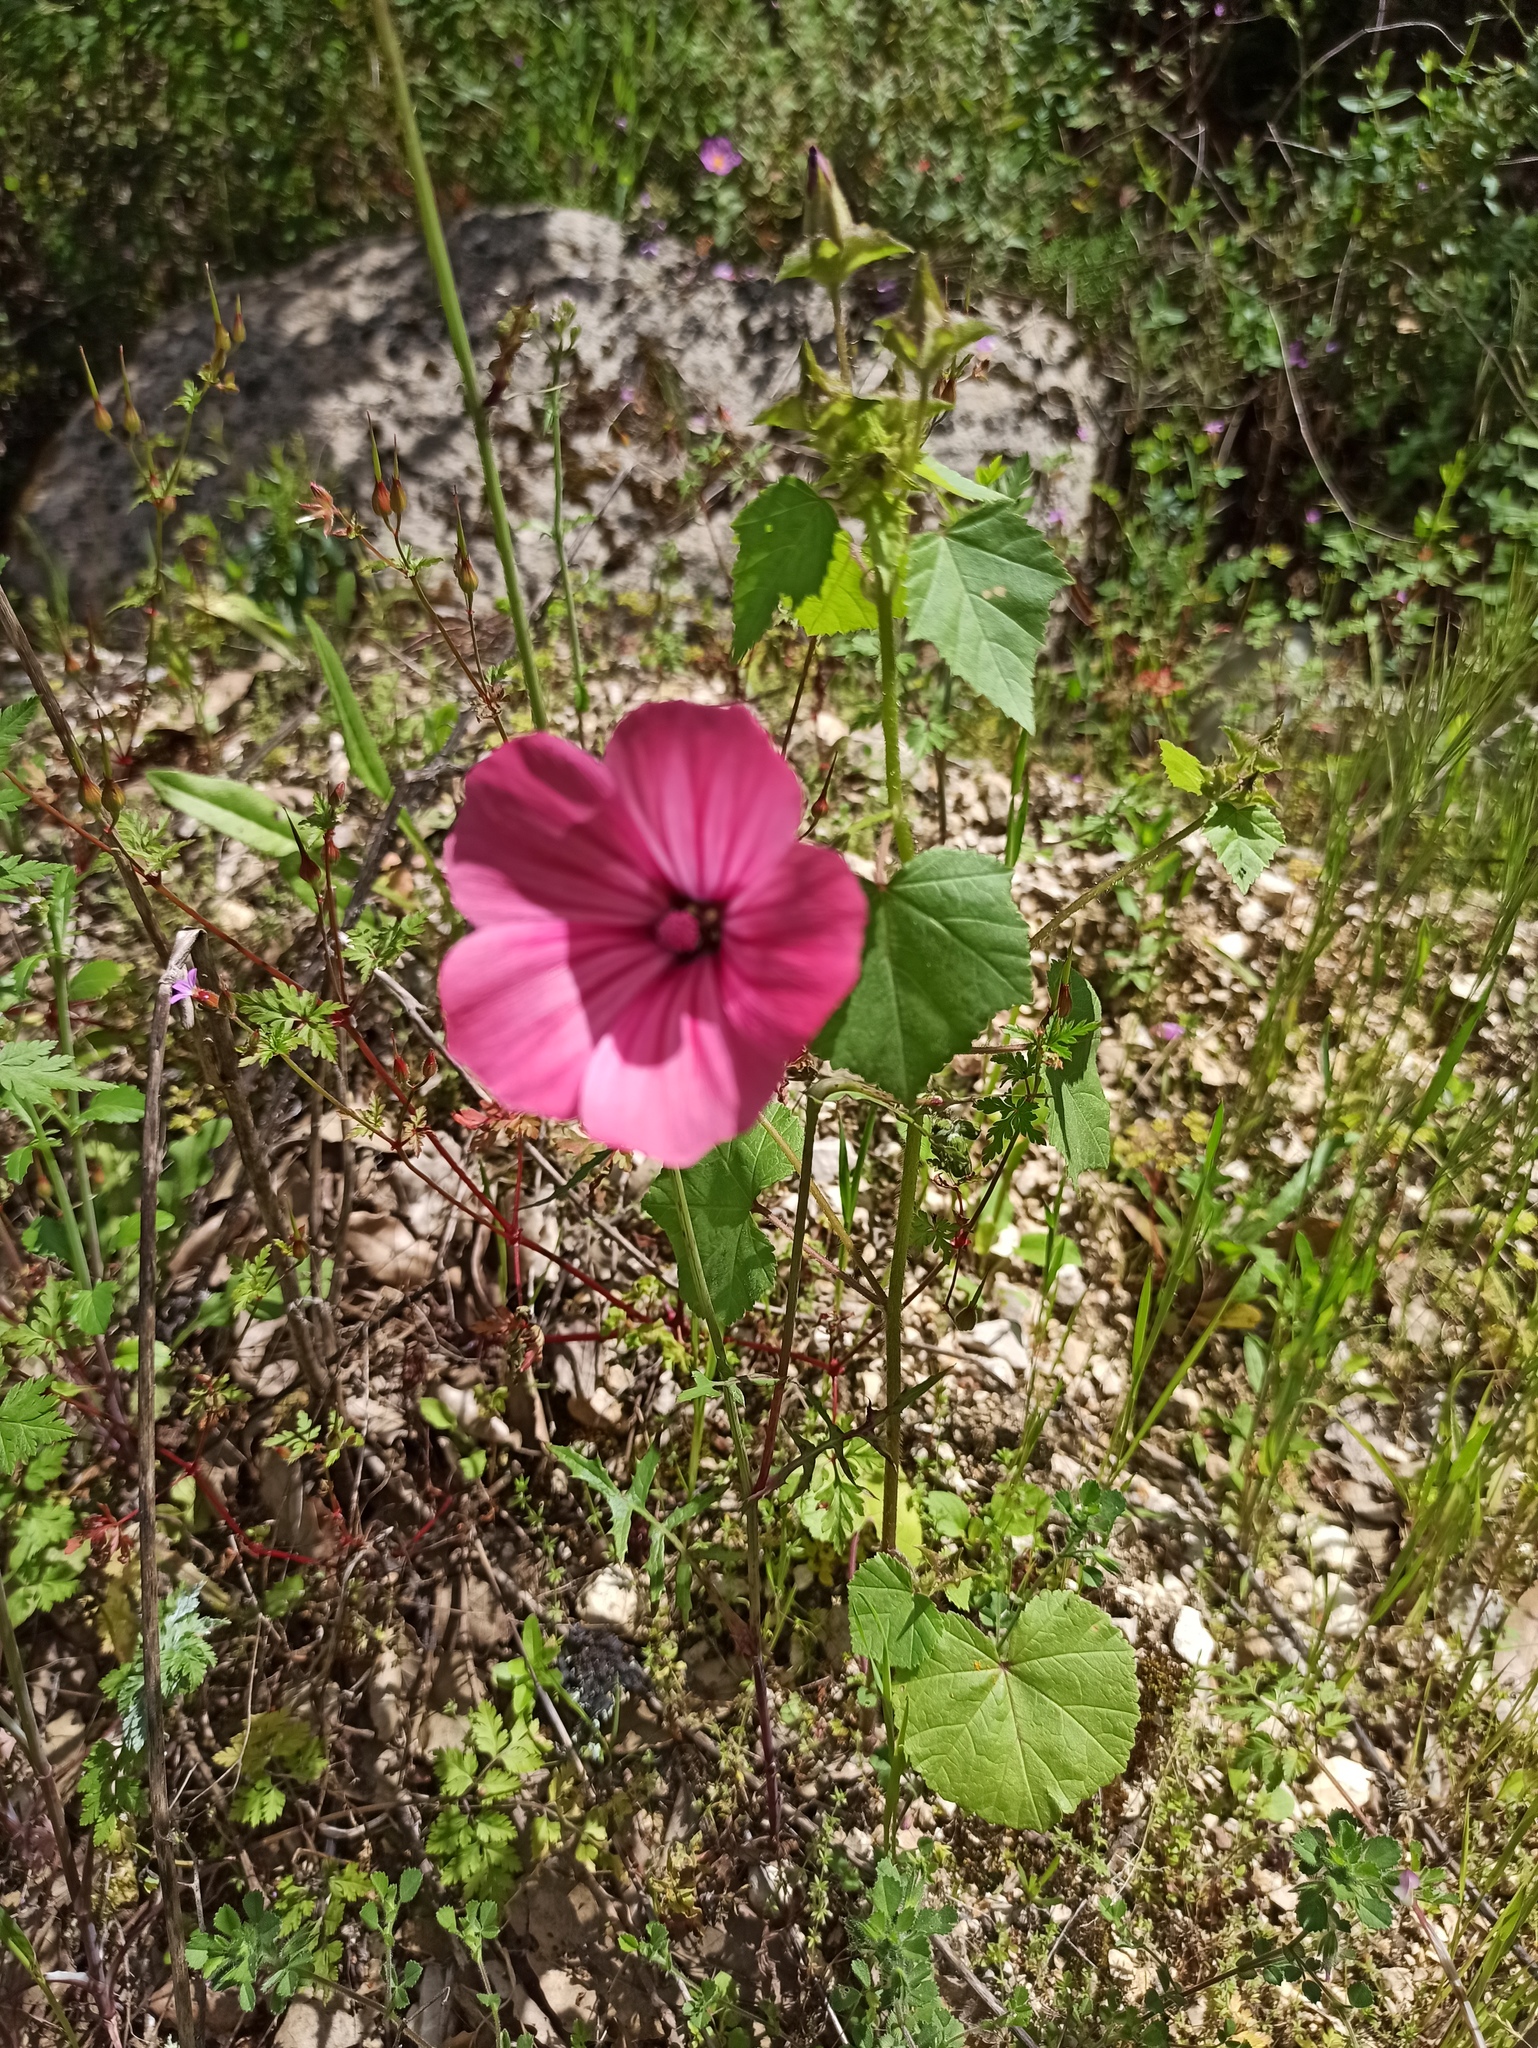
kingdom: Plantae
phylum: Tracheophyta
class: Magnoliopsida
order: Malvales
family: Malvaceae
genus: Malva
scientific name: Malva trimestris
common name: Royal mallow
